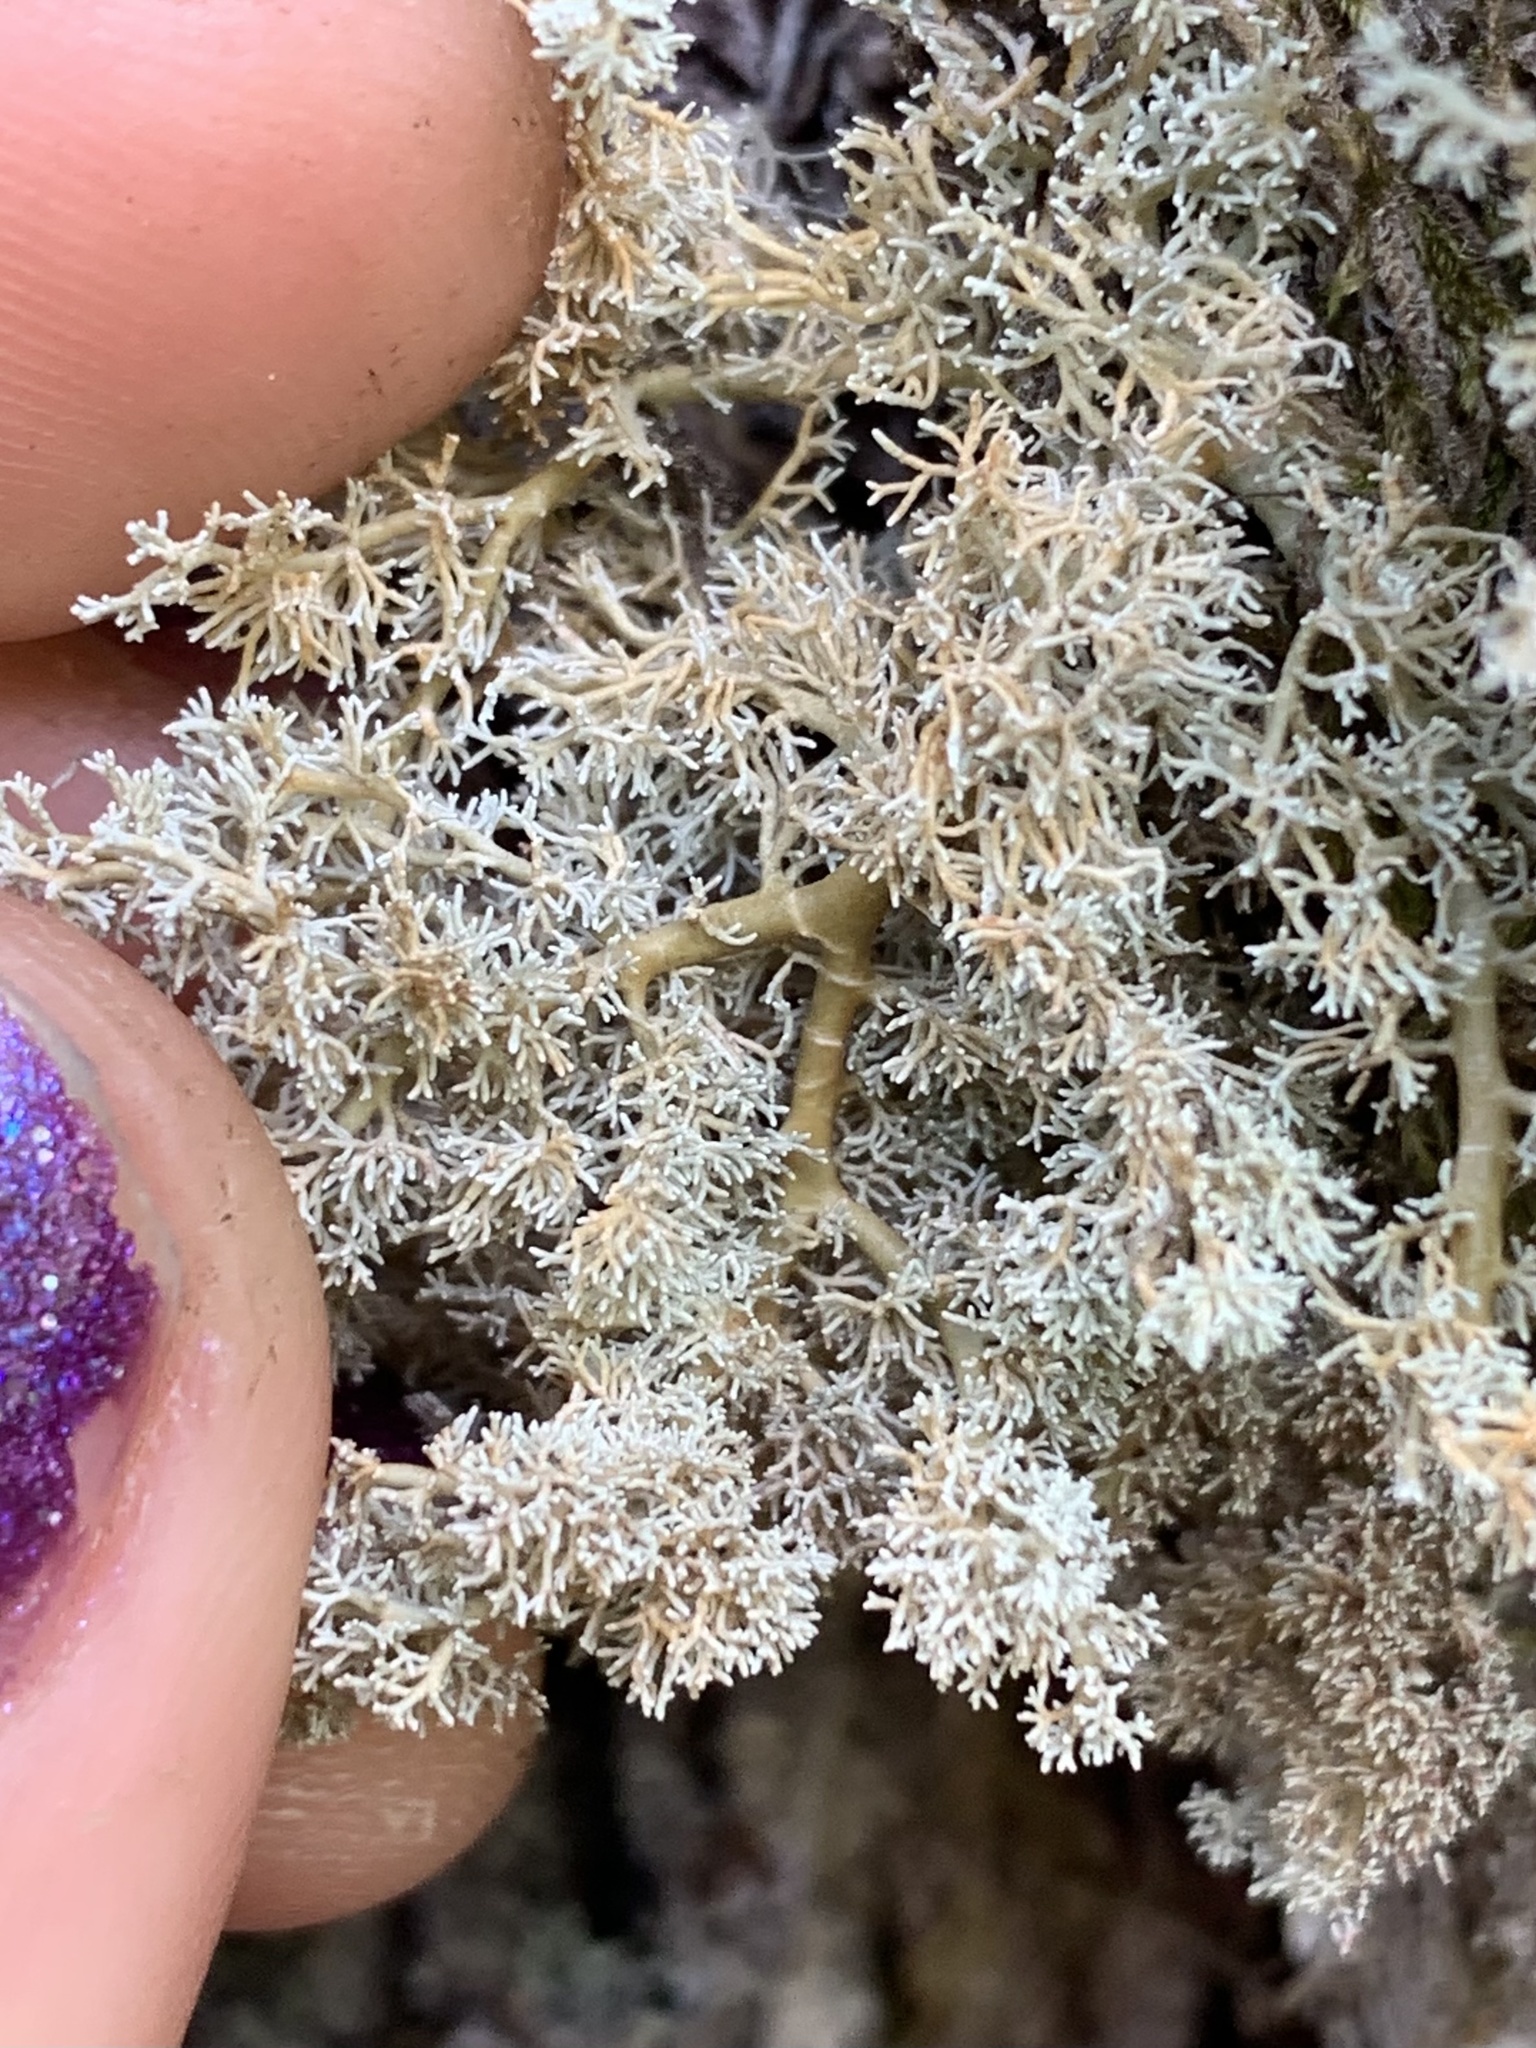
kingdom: Fungi
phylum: Ascomycota
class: Lecanoromycetes
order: Lecanorales
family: Sphaerophoraceae
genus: Sphaerophorus
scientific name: Sphaerophorus globosus
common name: Globe ball lichen
